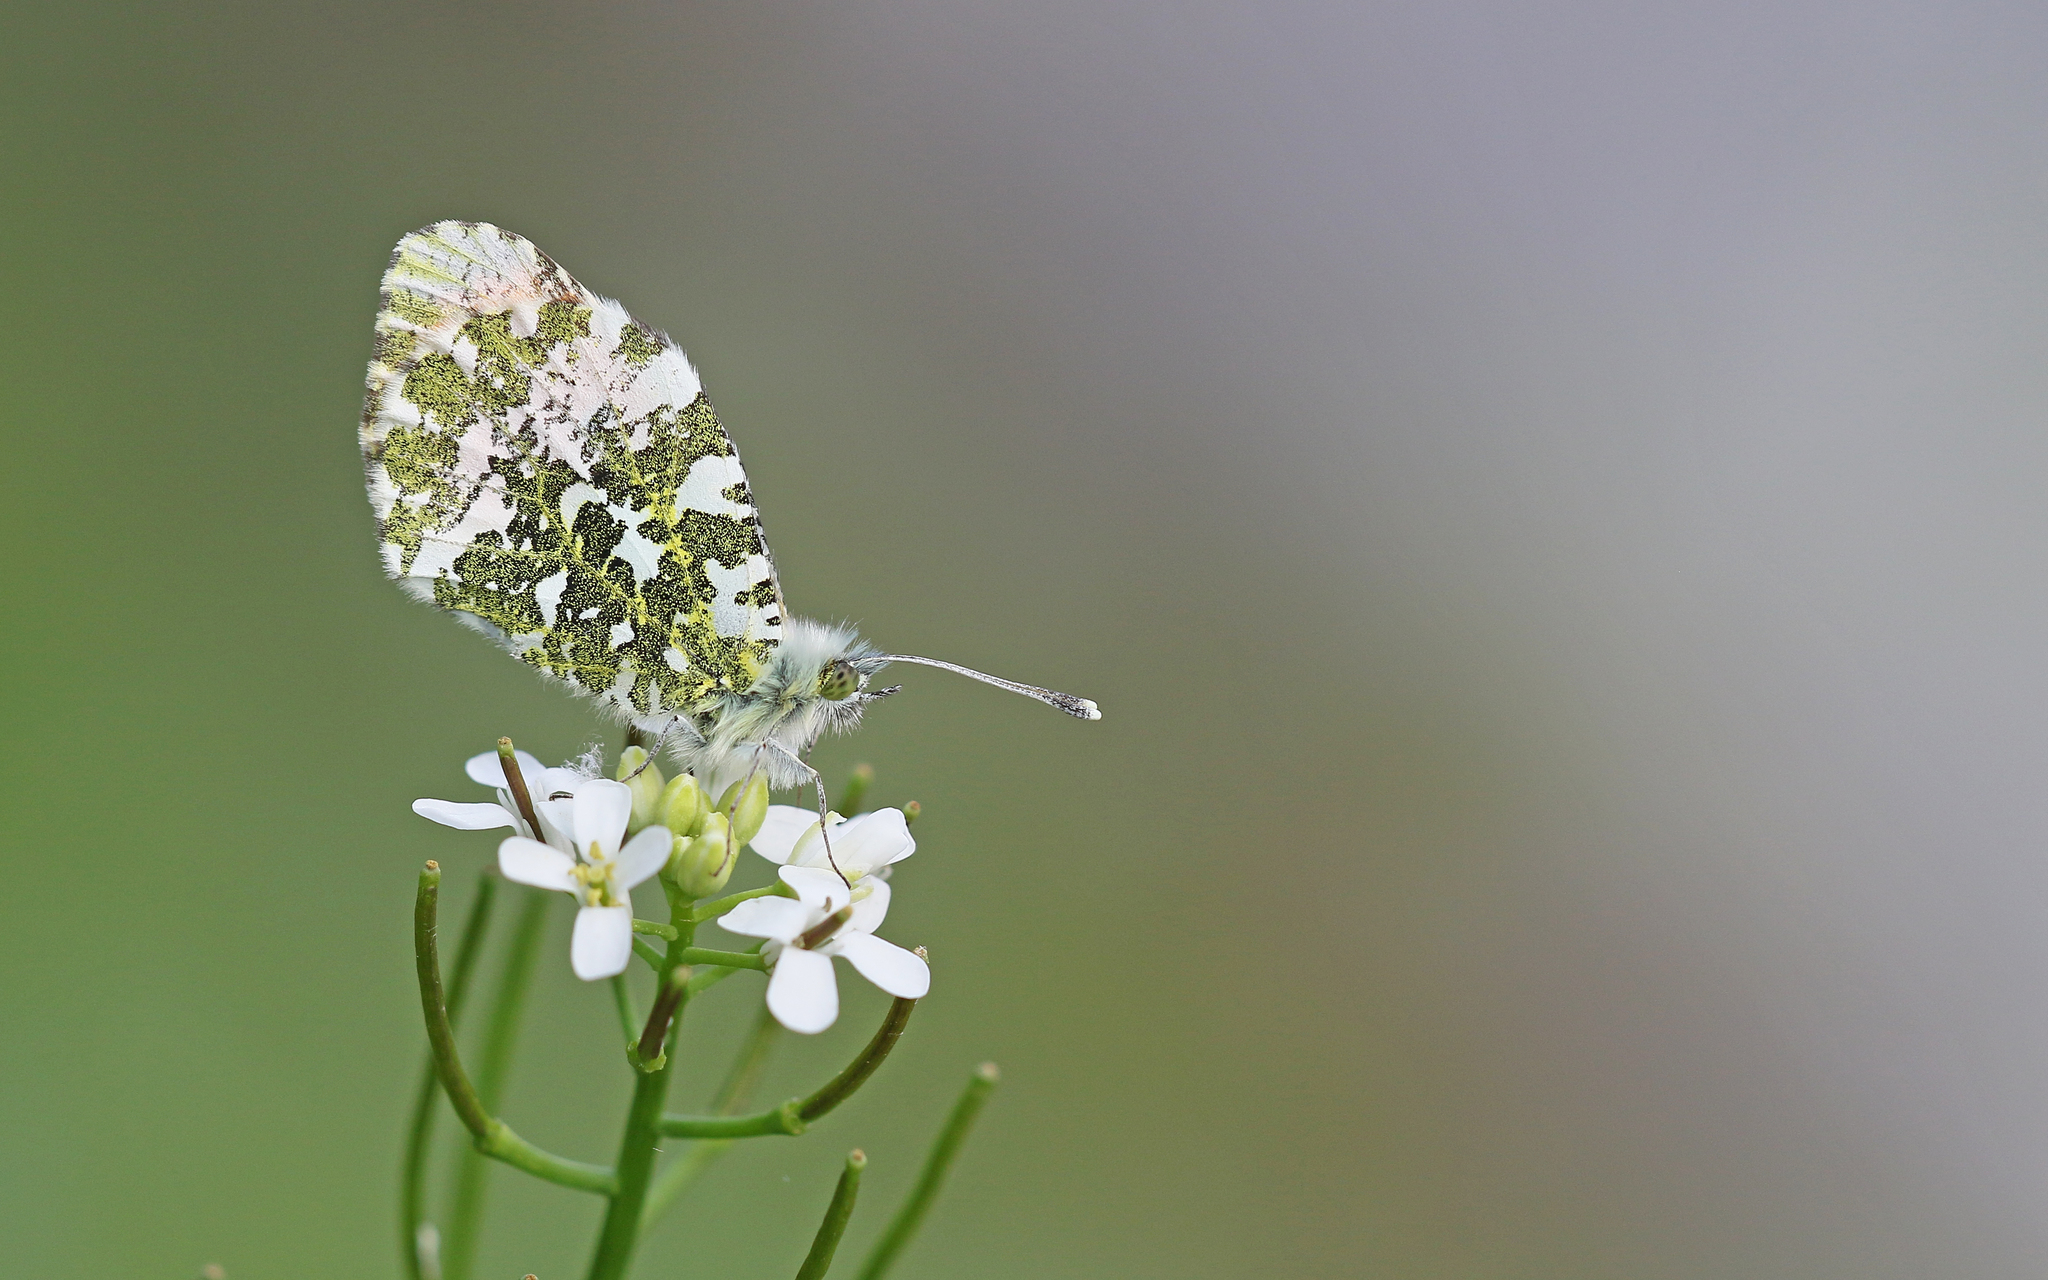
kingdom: Animalia
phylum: Arthropoda
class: Insecta
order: Lepidoptera
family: Pieridae
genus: Anthocharis
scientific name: Anthocharis cardamines
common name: Orange-tip
